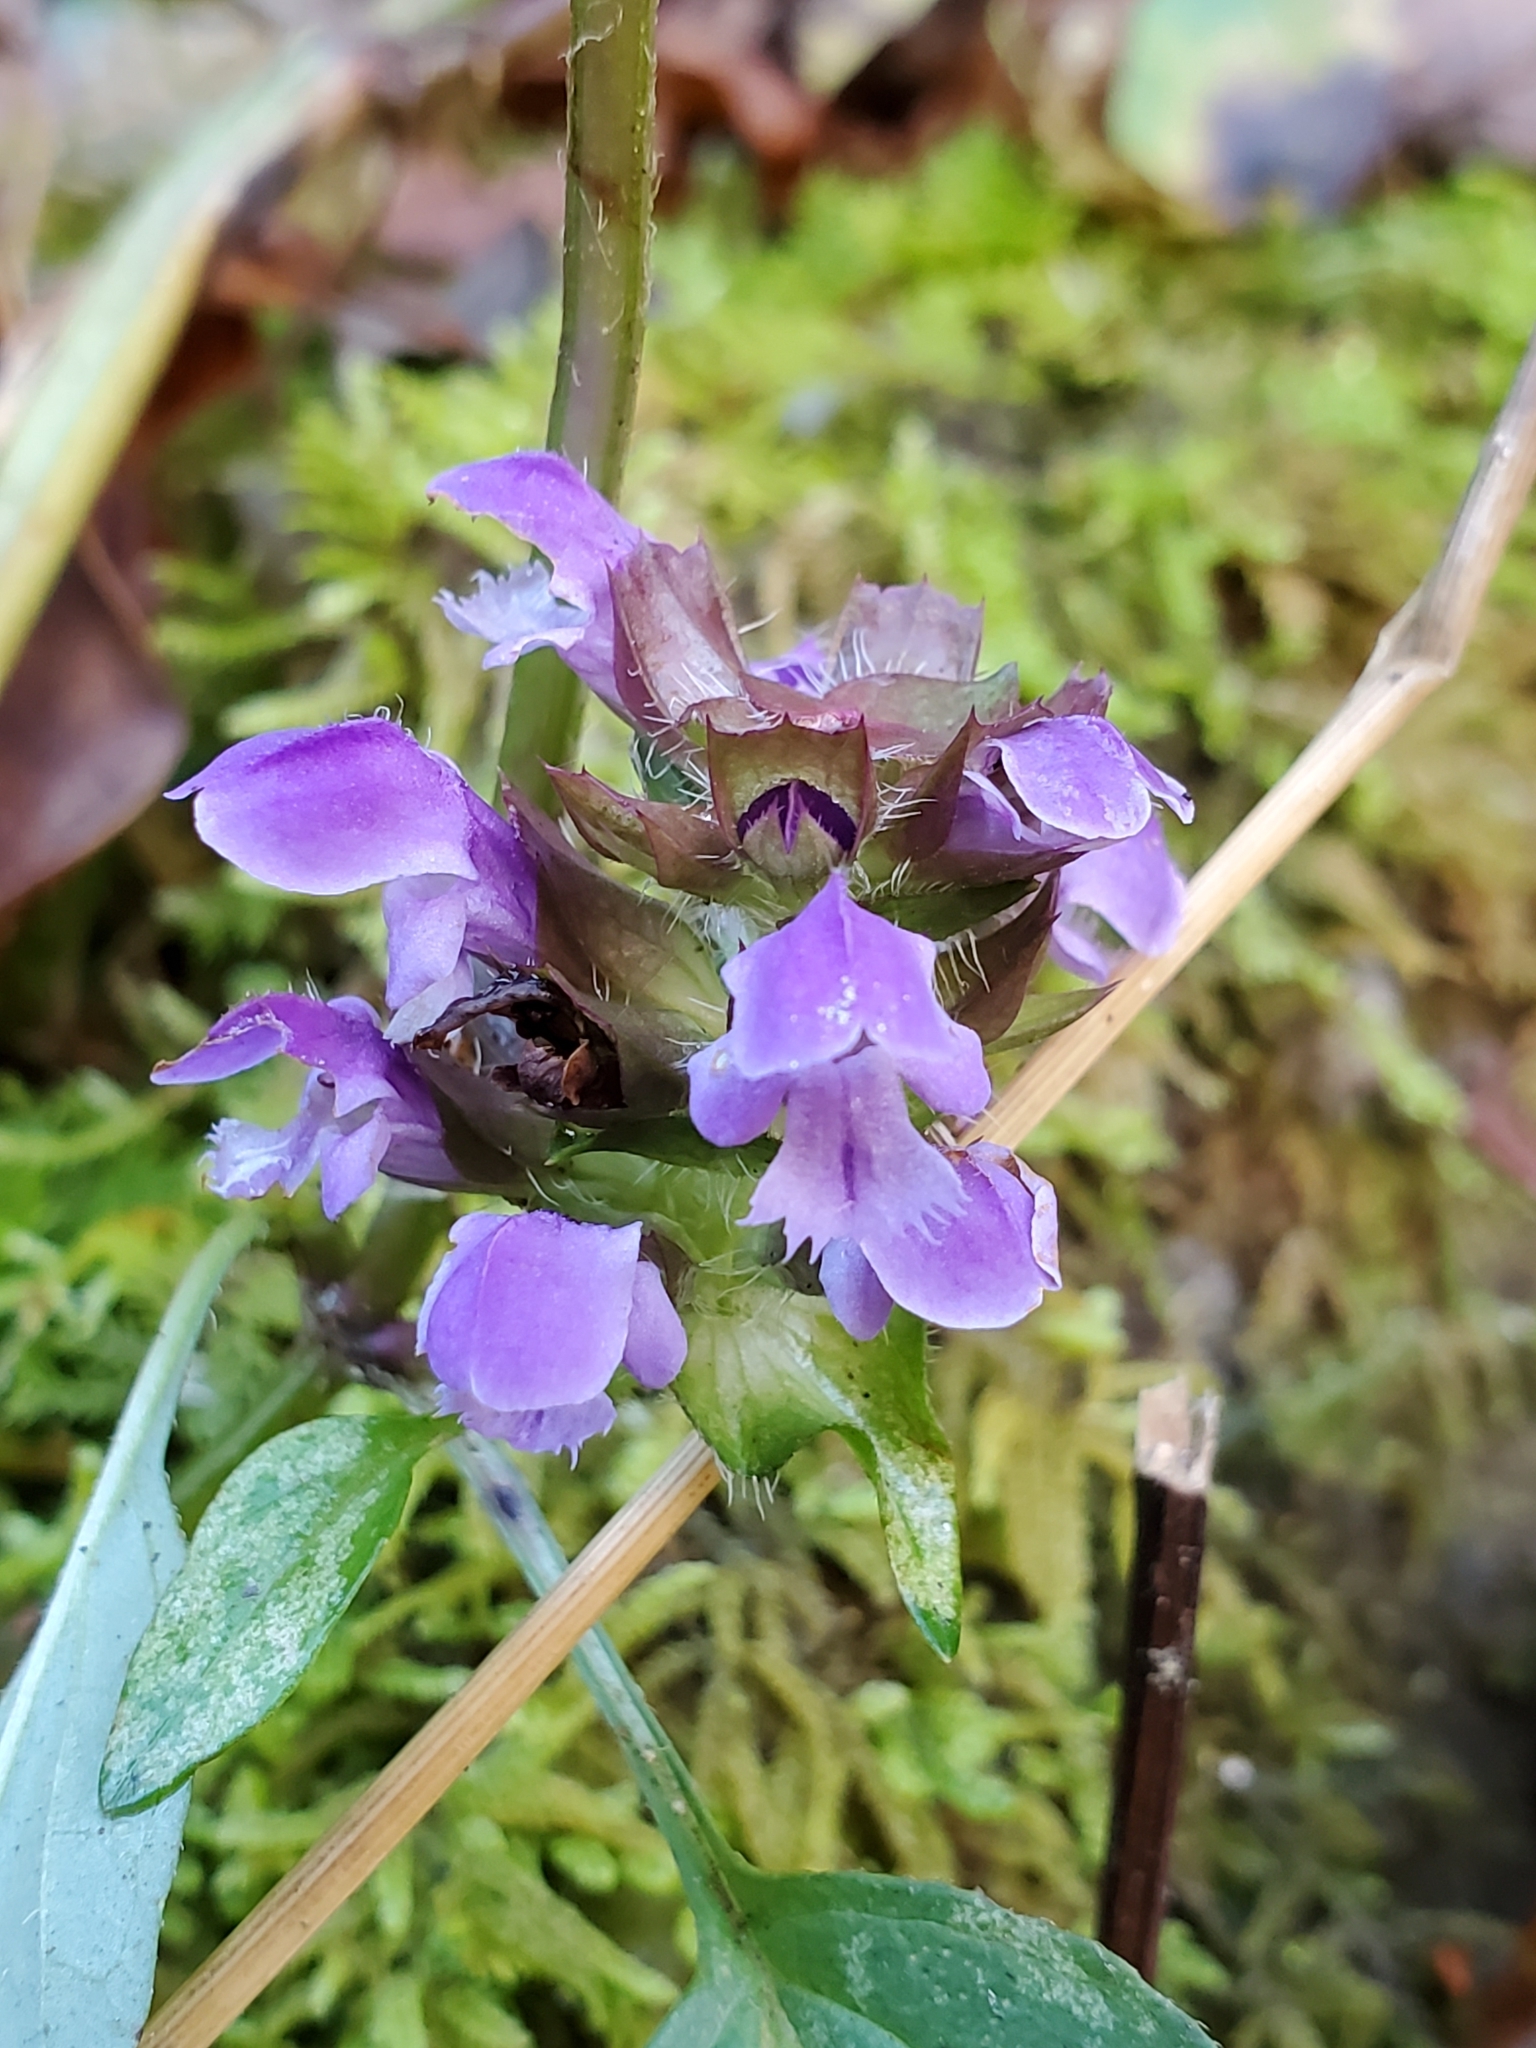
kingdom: Plantae
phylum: Tracheophyta
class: Magnoliopsida
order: Lamiales
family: Lamiaceae
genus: Prunella
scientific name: Prunella vulgaris
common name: Heal-all
